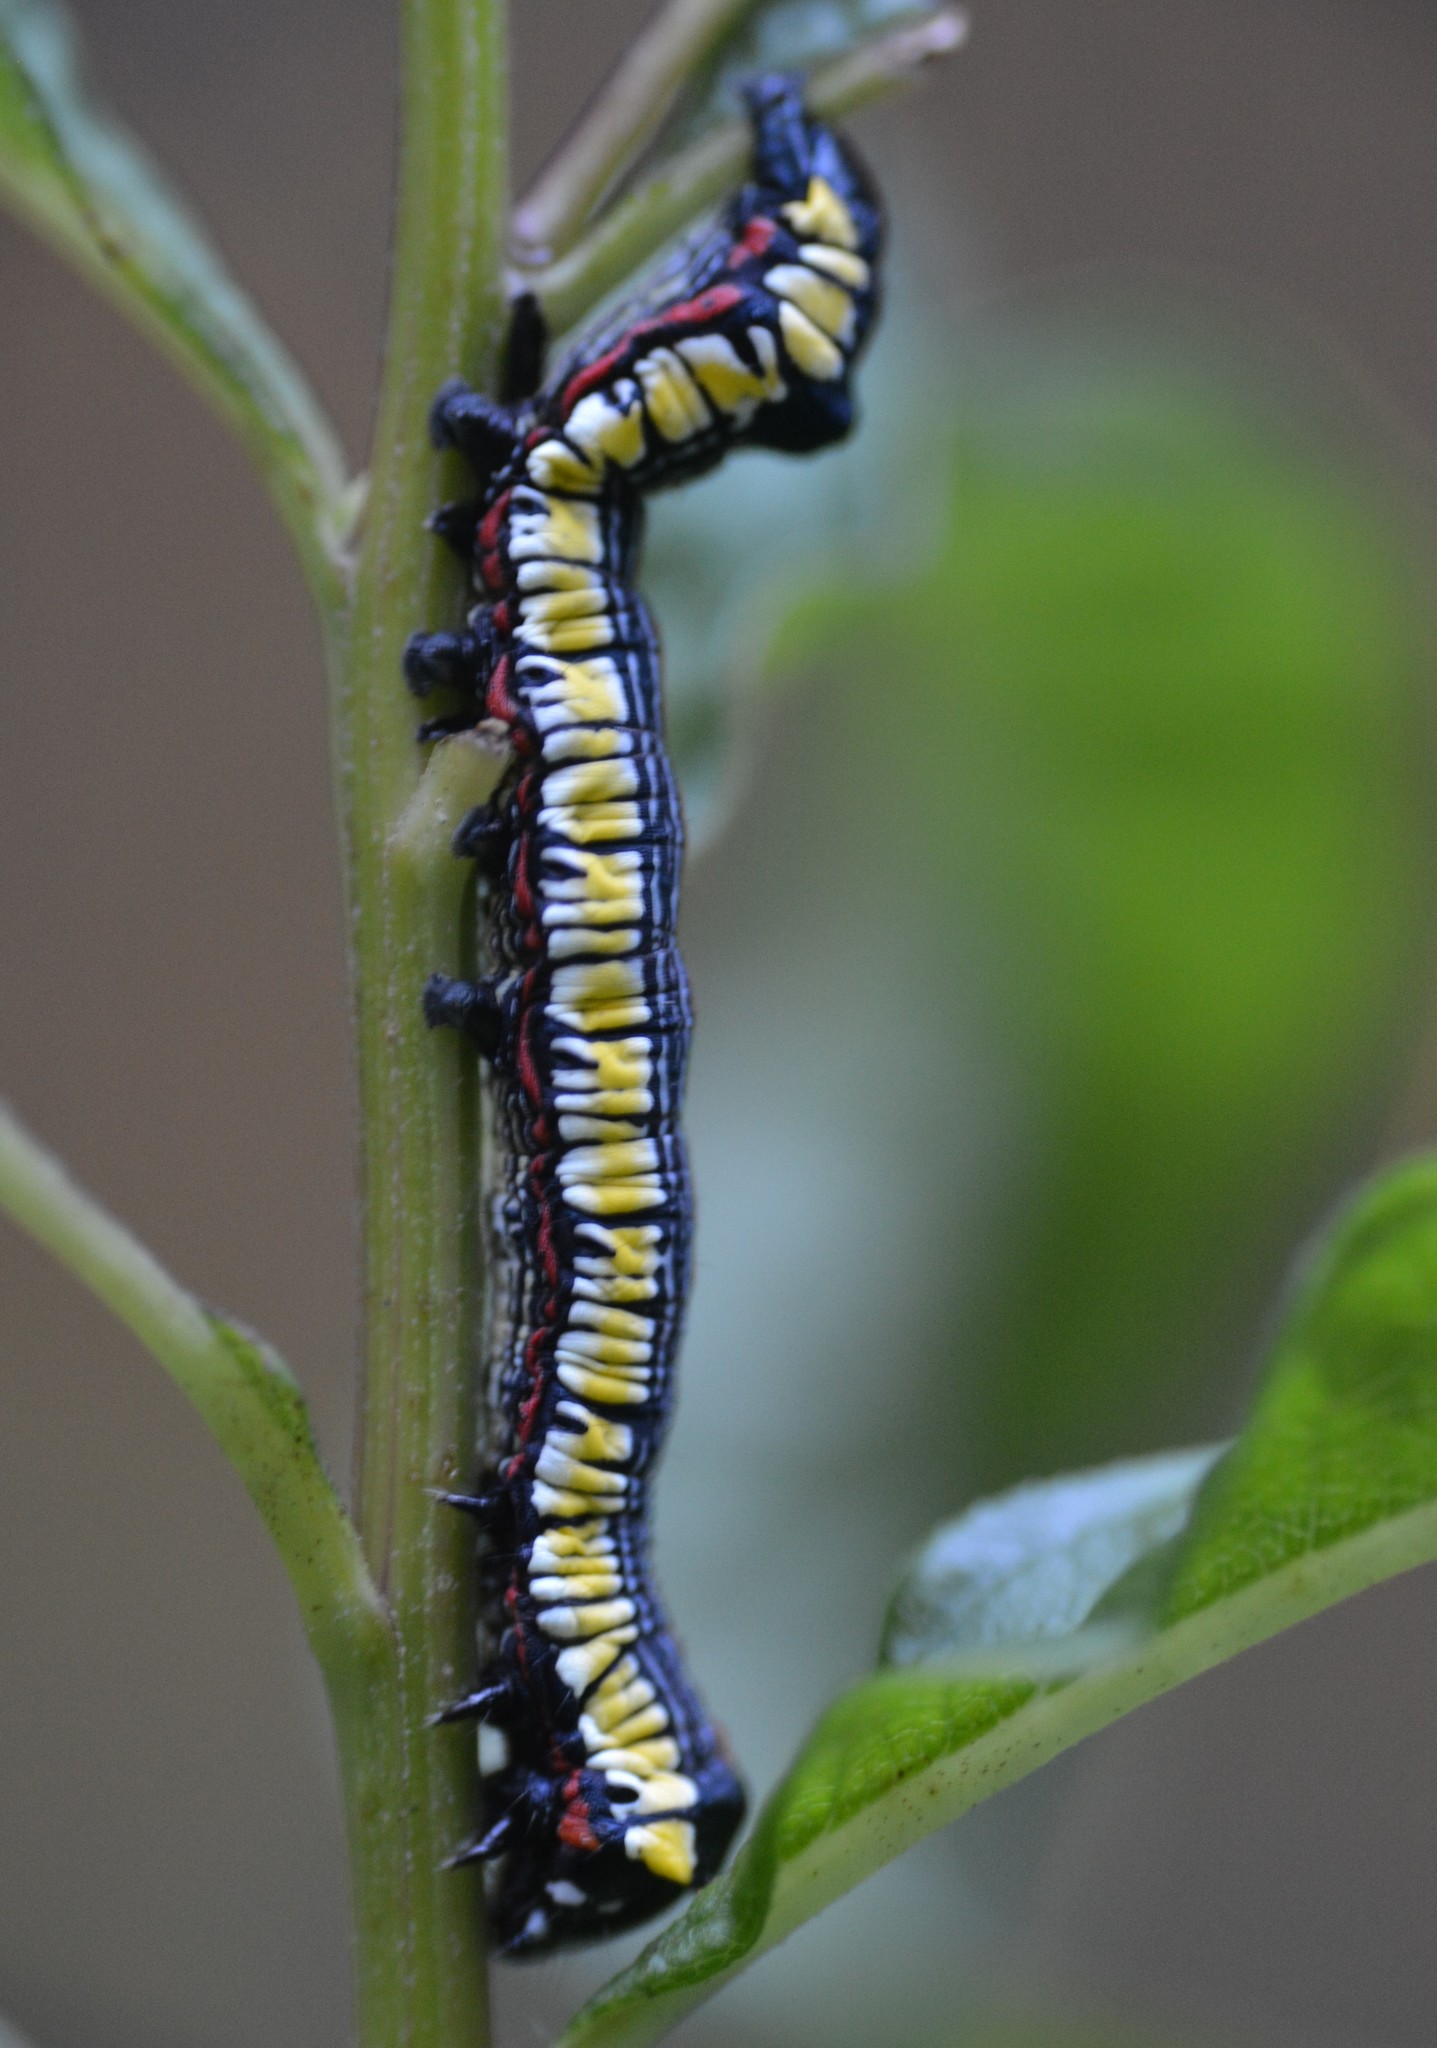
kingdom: Animalia
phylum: Arthropoda
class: Insecta
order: Lepidoptera
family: Noctuidae
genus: Cucullia
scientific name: Cucullia convexipennis
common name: Brown-hooded owlet
